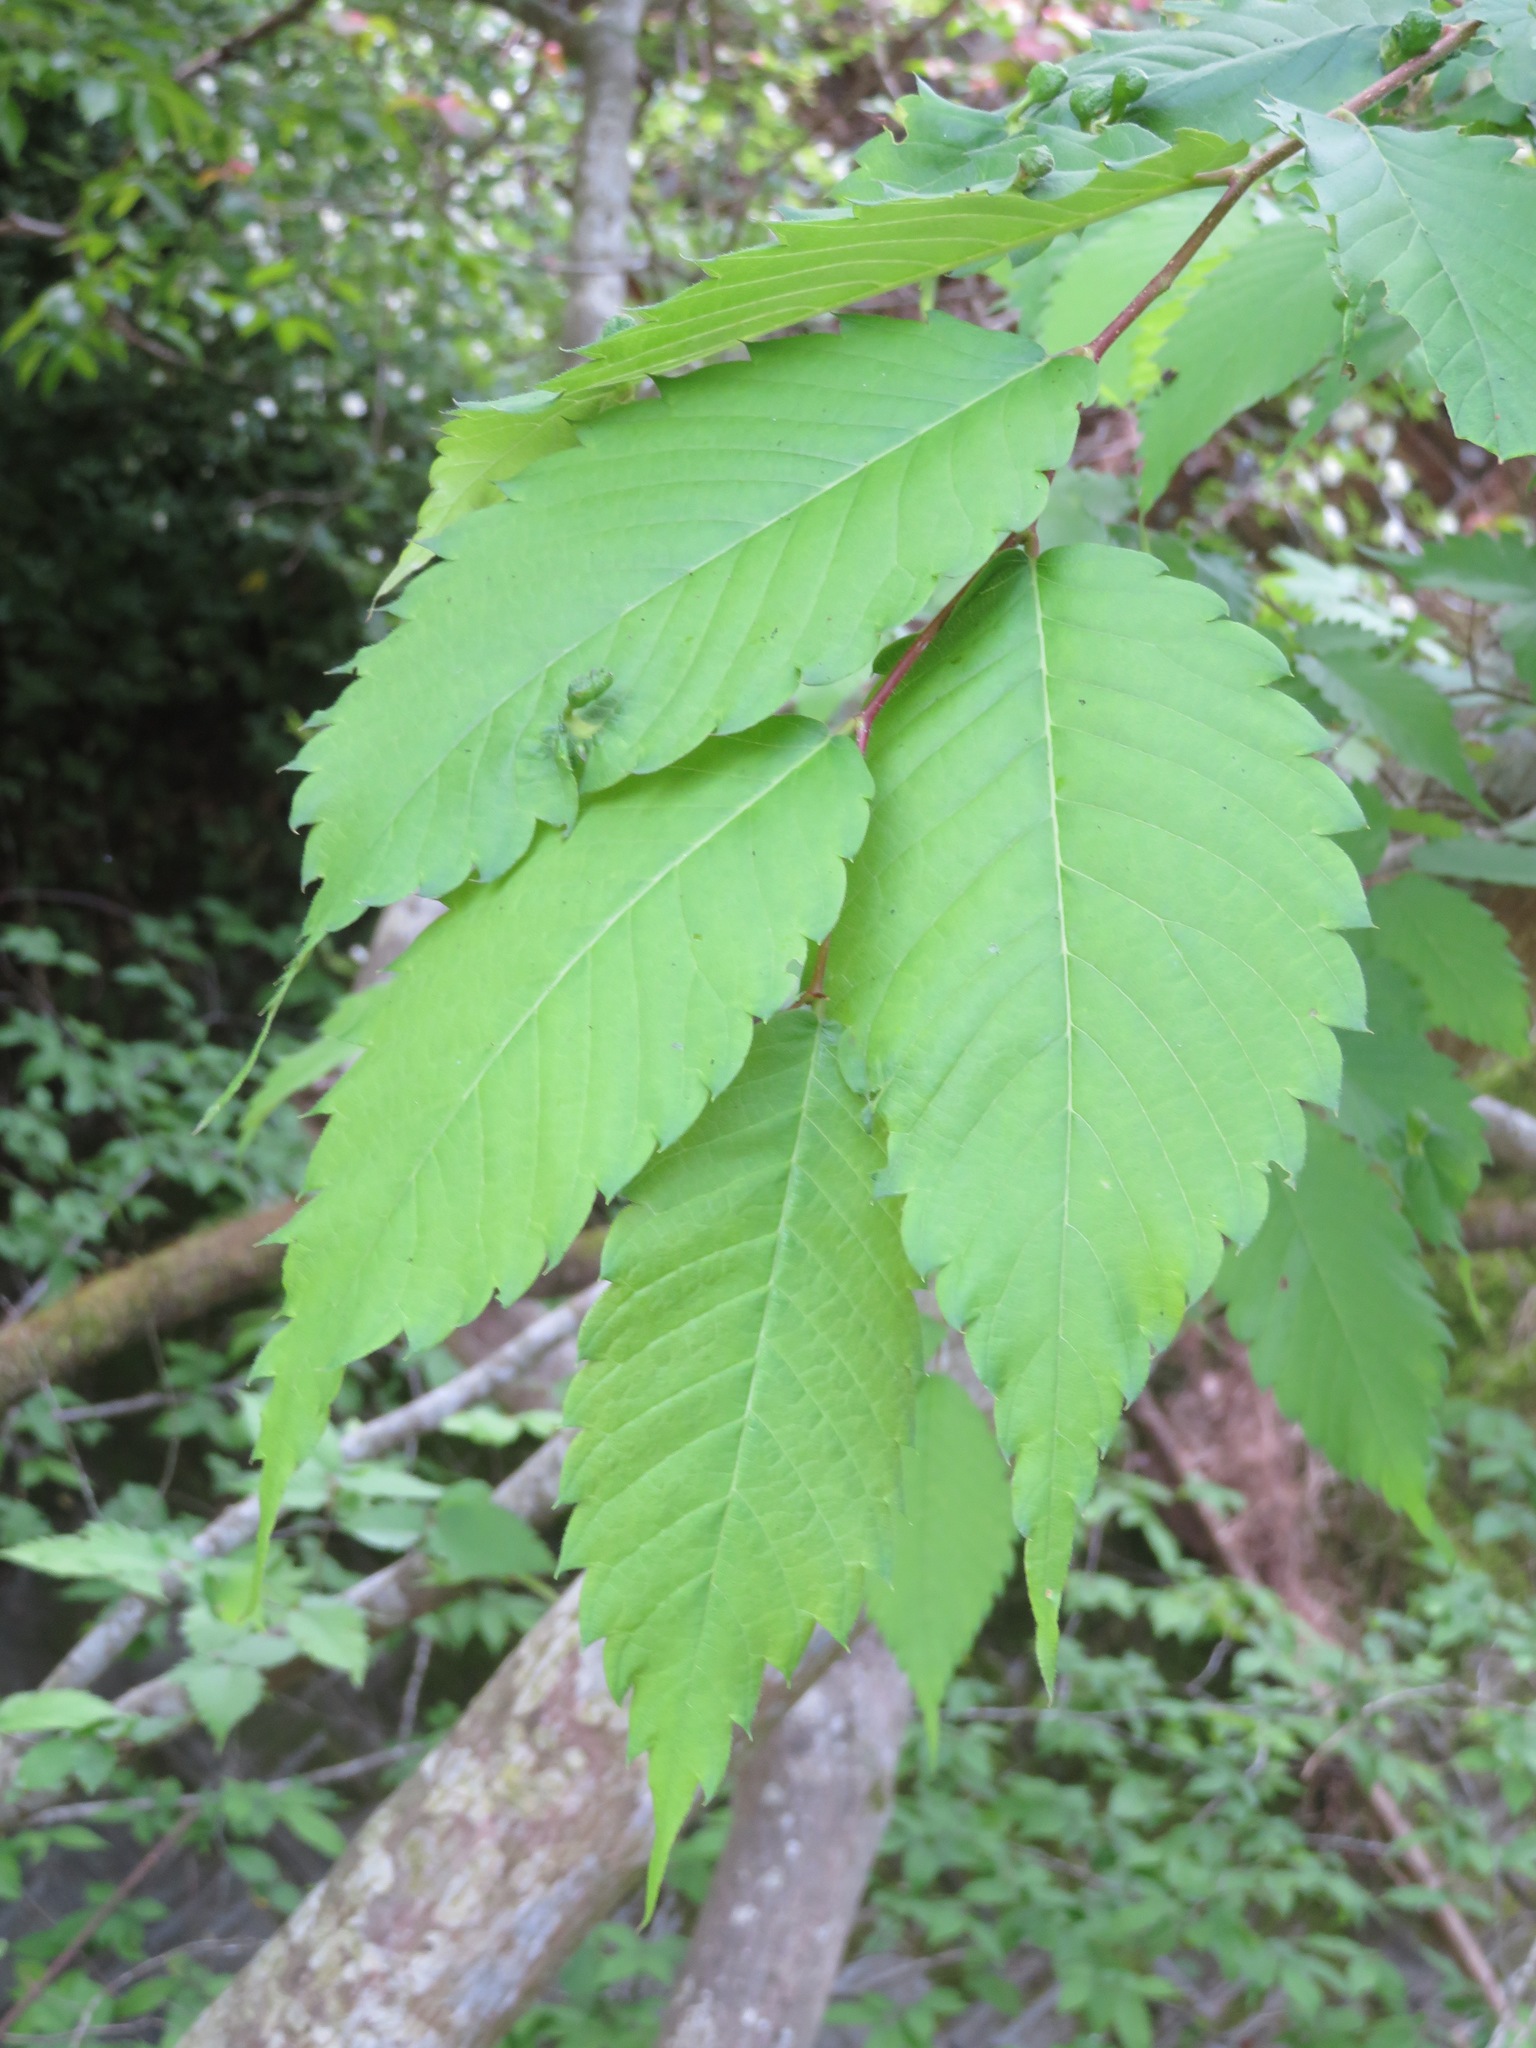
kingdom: Plantae
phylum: Tracheophyta
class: Magnoliopsida
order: Rosales
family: Ulmaceae
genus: Zelkova
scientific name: Zelkova serrata
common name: Japanese zelkova
